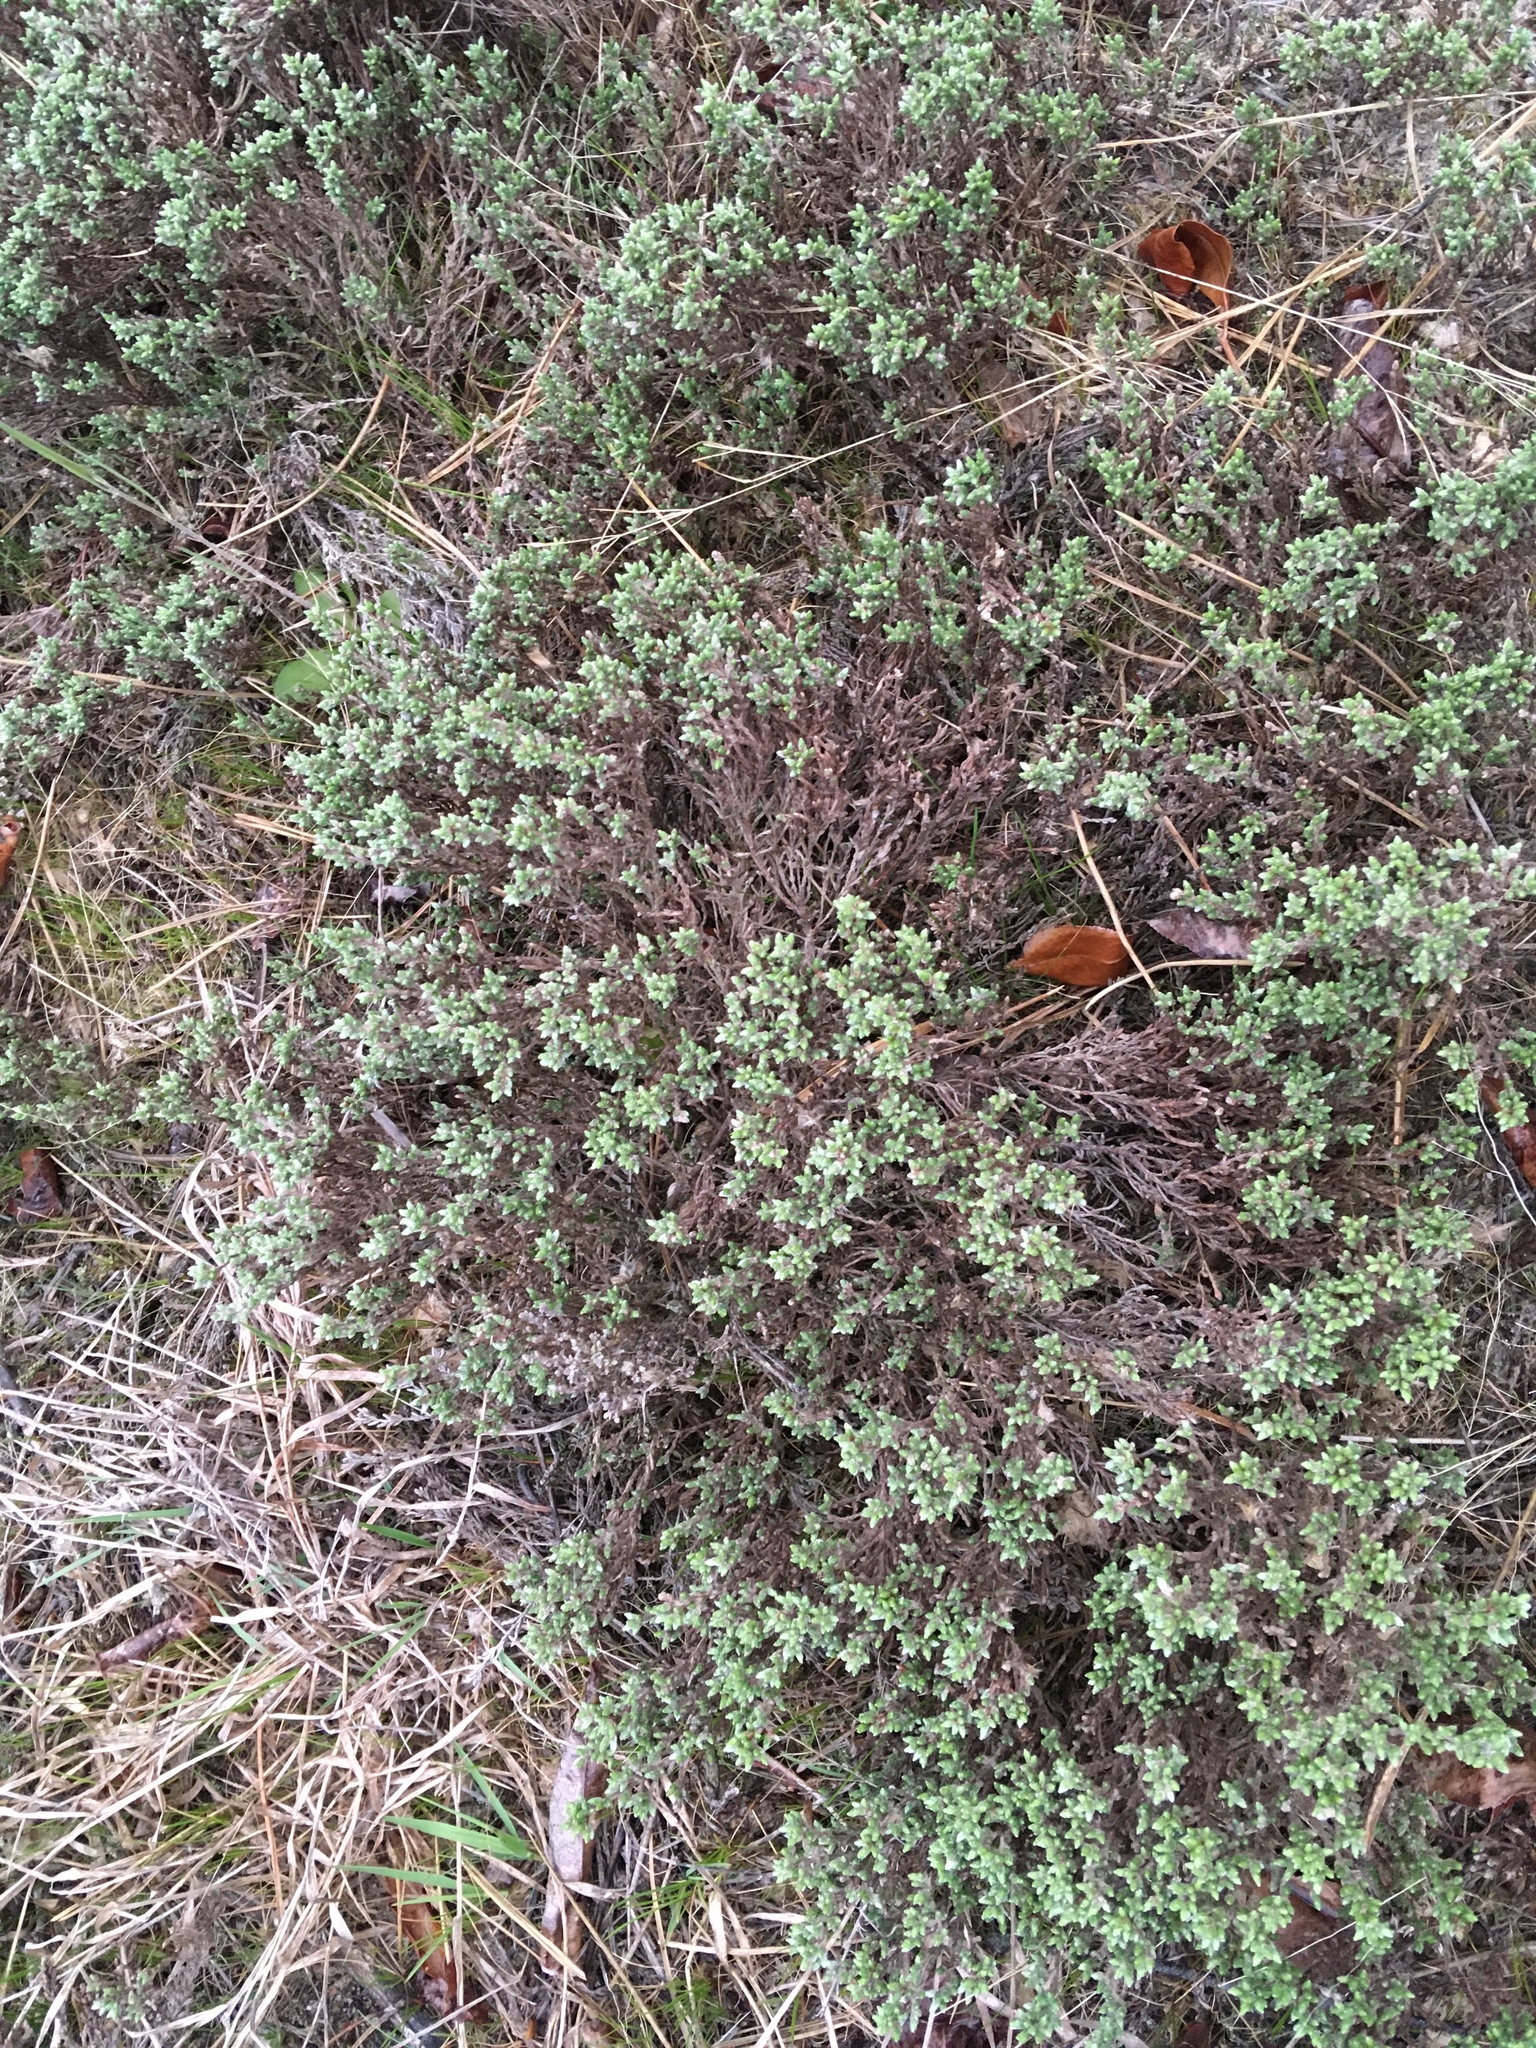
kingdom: Plantae
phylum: Tracheophyta
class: Magnoliopsida
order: Malvales
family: Cistaceae
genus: Hudsonia
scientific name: Hudsonia tomentosa
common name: Beach-heath
